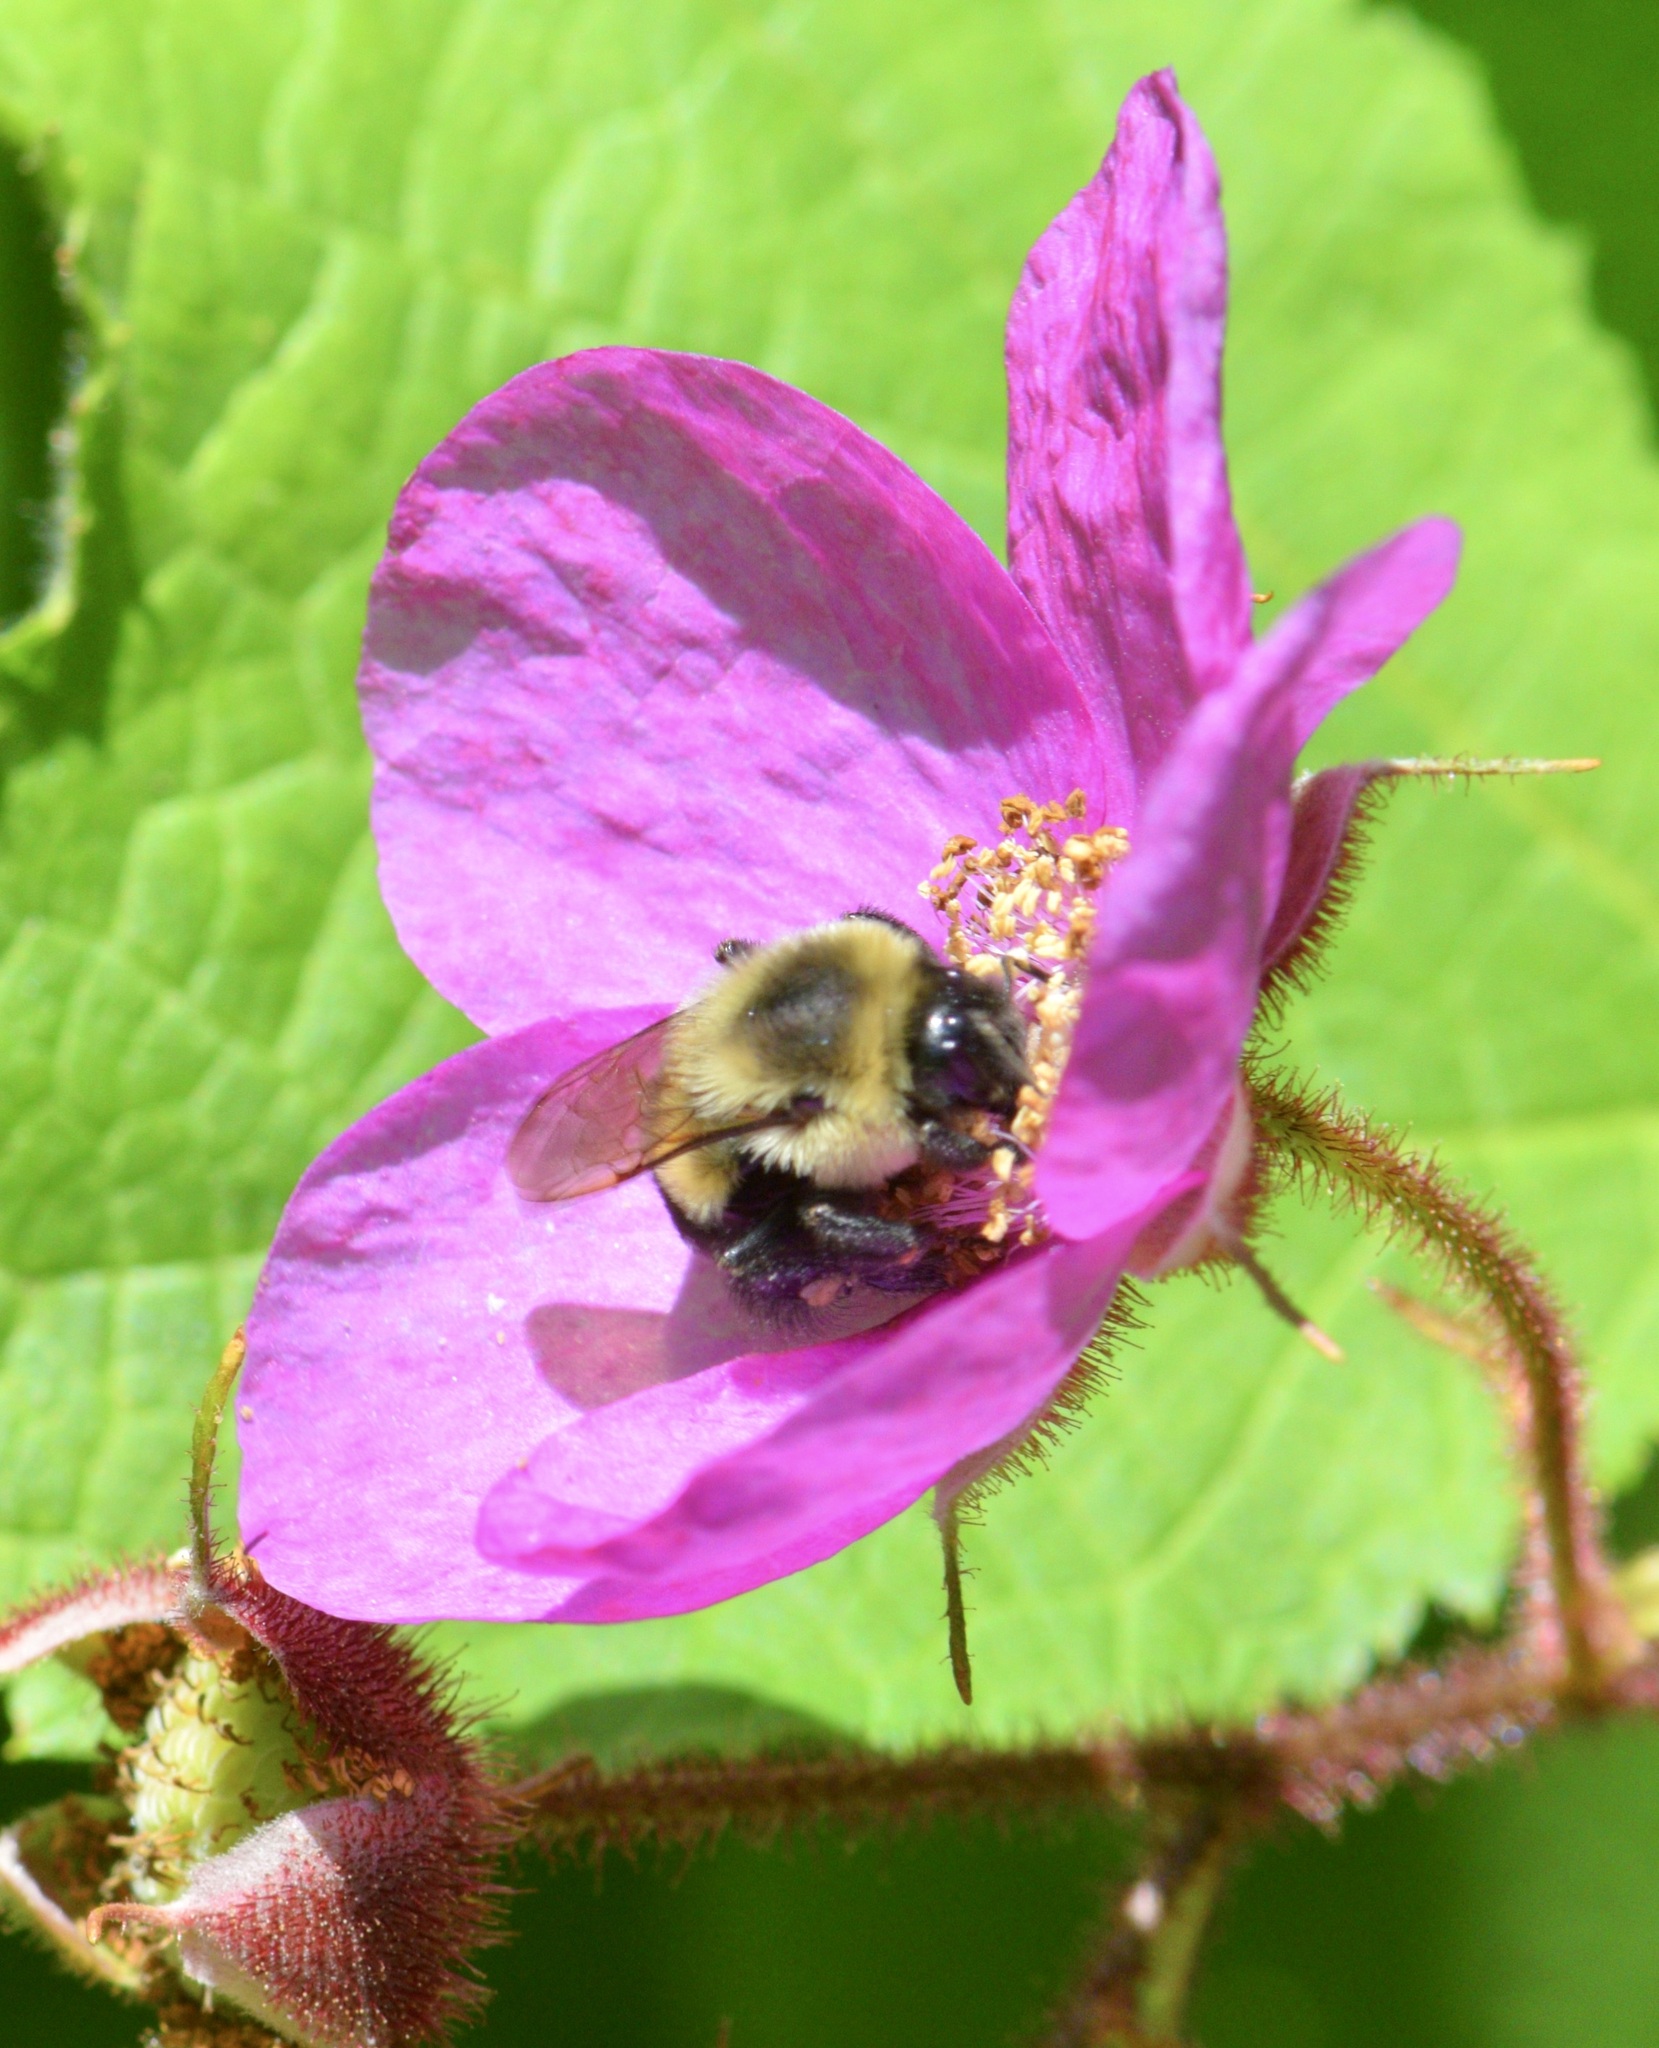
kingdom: Animalia
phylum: Arthropoda
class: Insecta
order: Hymenoptera
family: Apidae
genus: Bombus
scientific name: Bombus impatiens
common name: Common eastern bumble bee
